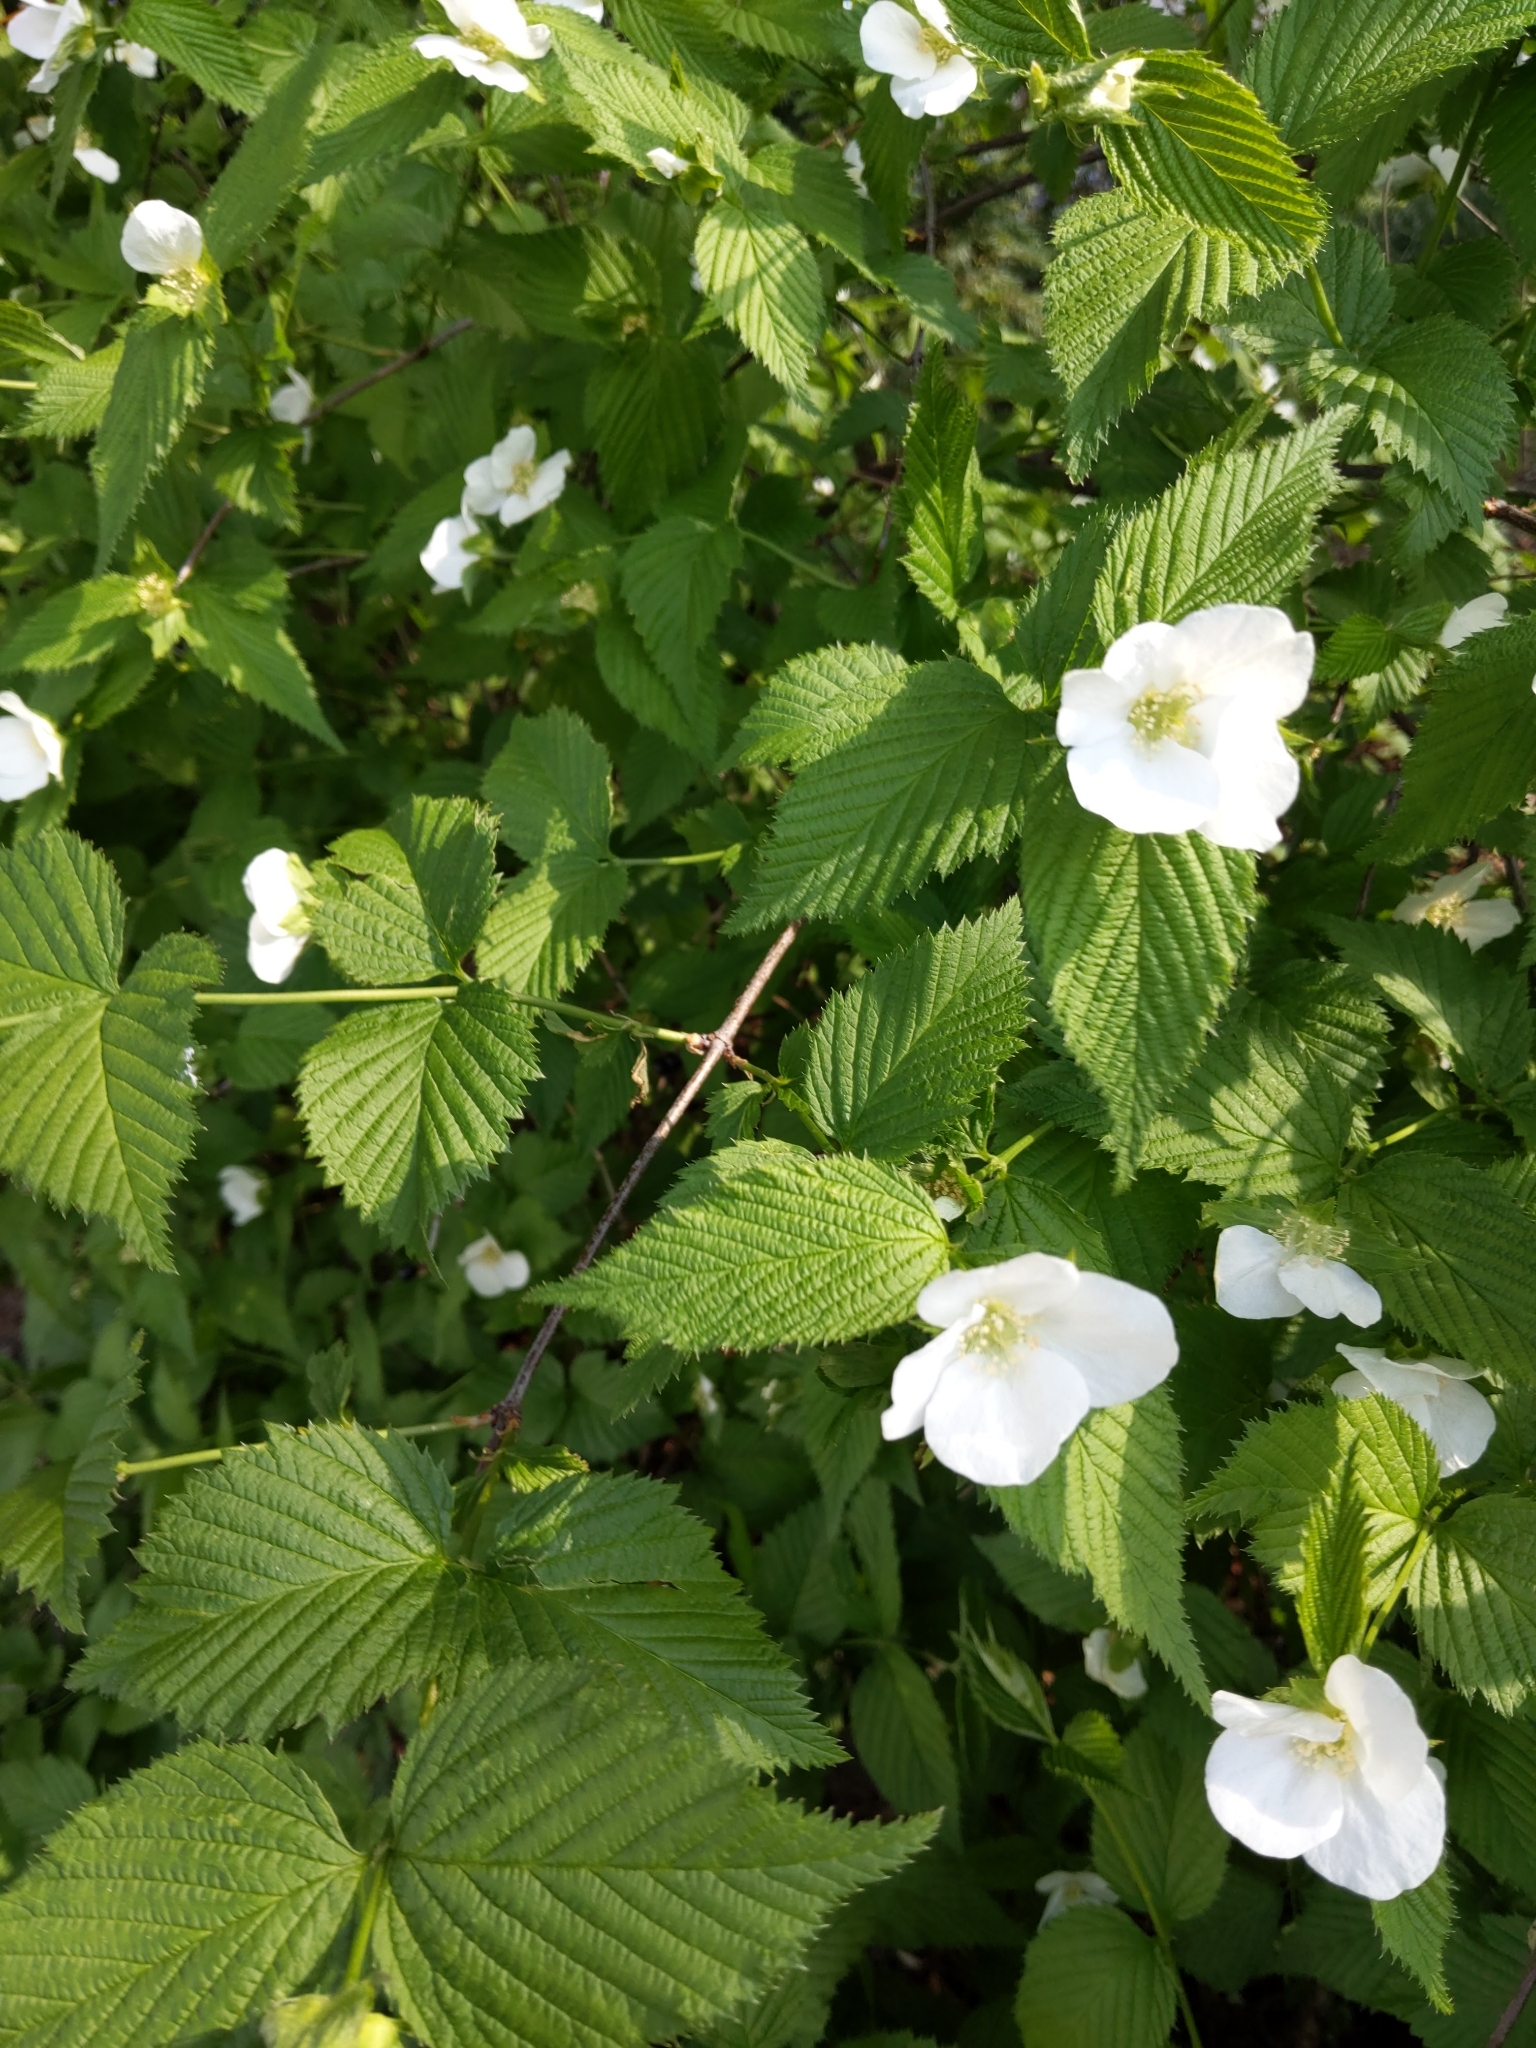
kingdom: Plantae
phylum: Tracheophyta
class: Magnoliopsida
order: Rosales
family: Rosaceae
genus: Rhodotypos
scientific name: Rhodotypos scandens
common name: Jetbead
